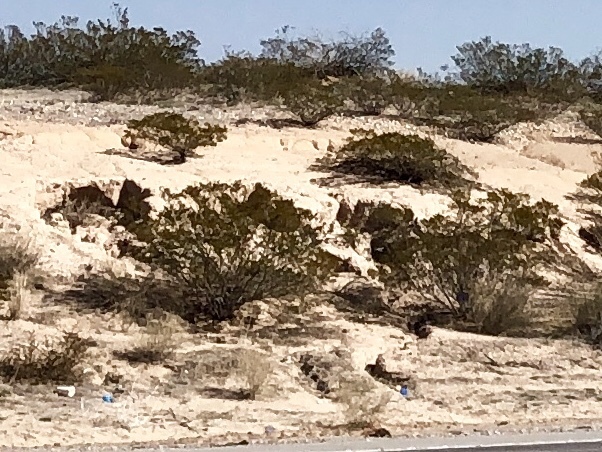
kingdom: Plantae
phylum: Tracheophyta
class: Magnoliopsida
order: Zygophyllales
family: Zygophyllaceae
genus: Larrea
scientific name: Larrea tridentata
